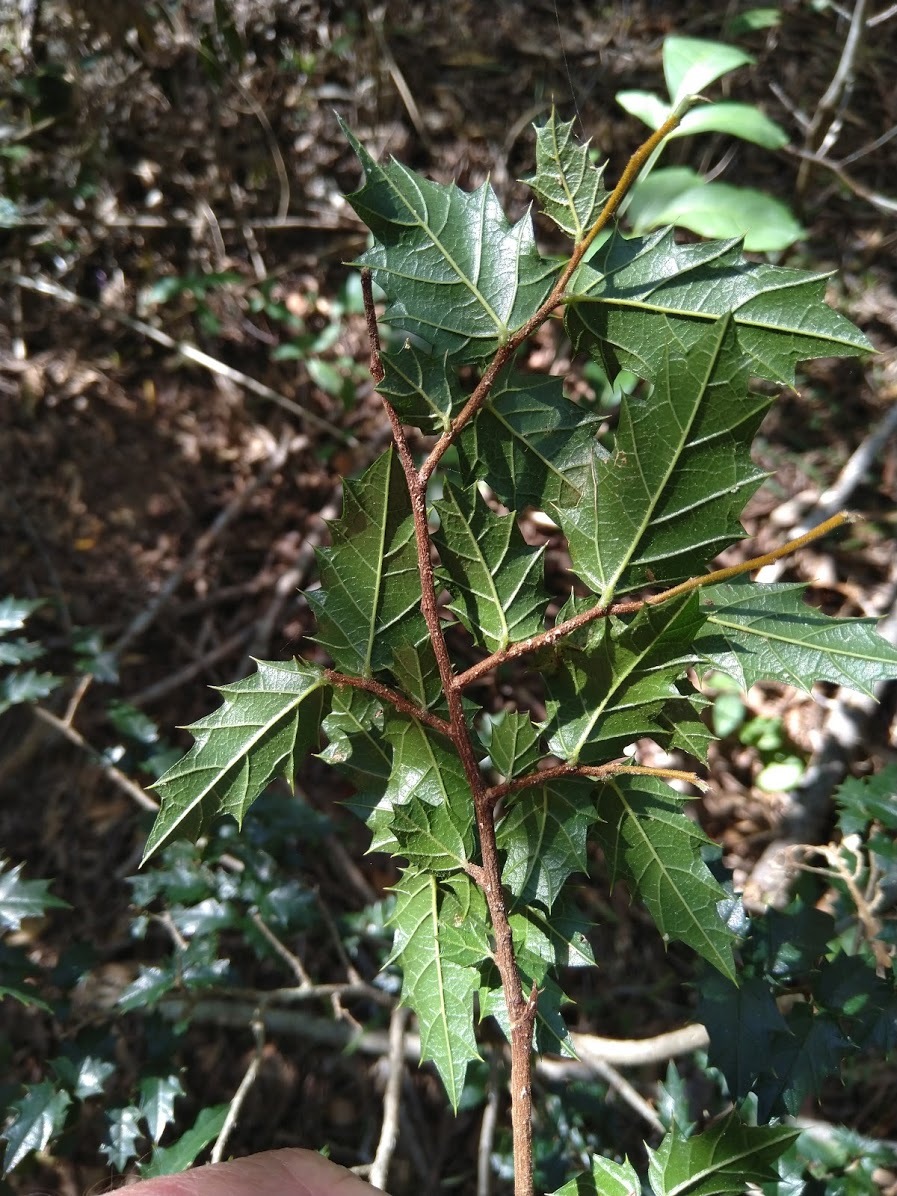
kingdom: Plantae
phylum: Tracheophyta
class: Magnoliopsida
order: Rosales
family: Cannabaceae
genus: Aphananthe
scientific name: Aphananthe philippinensis
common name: Wild holly
